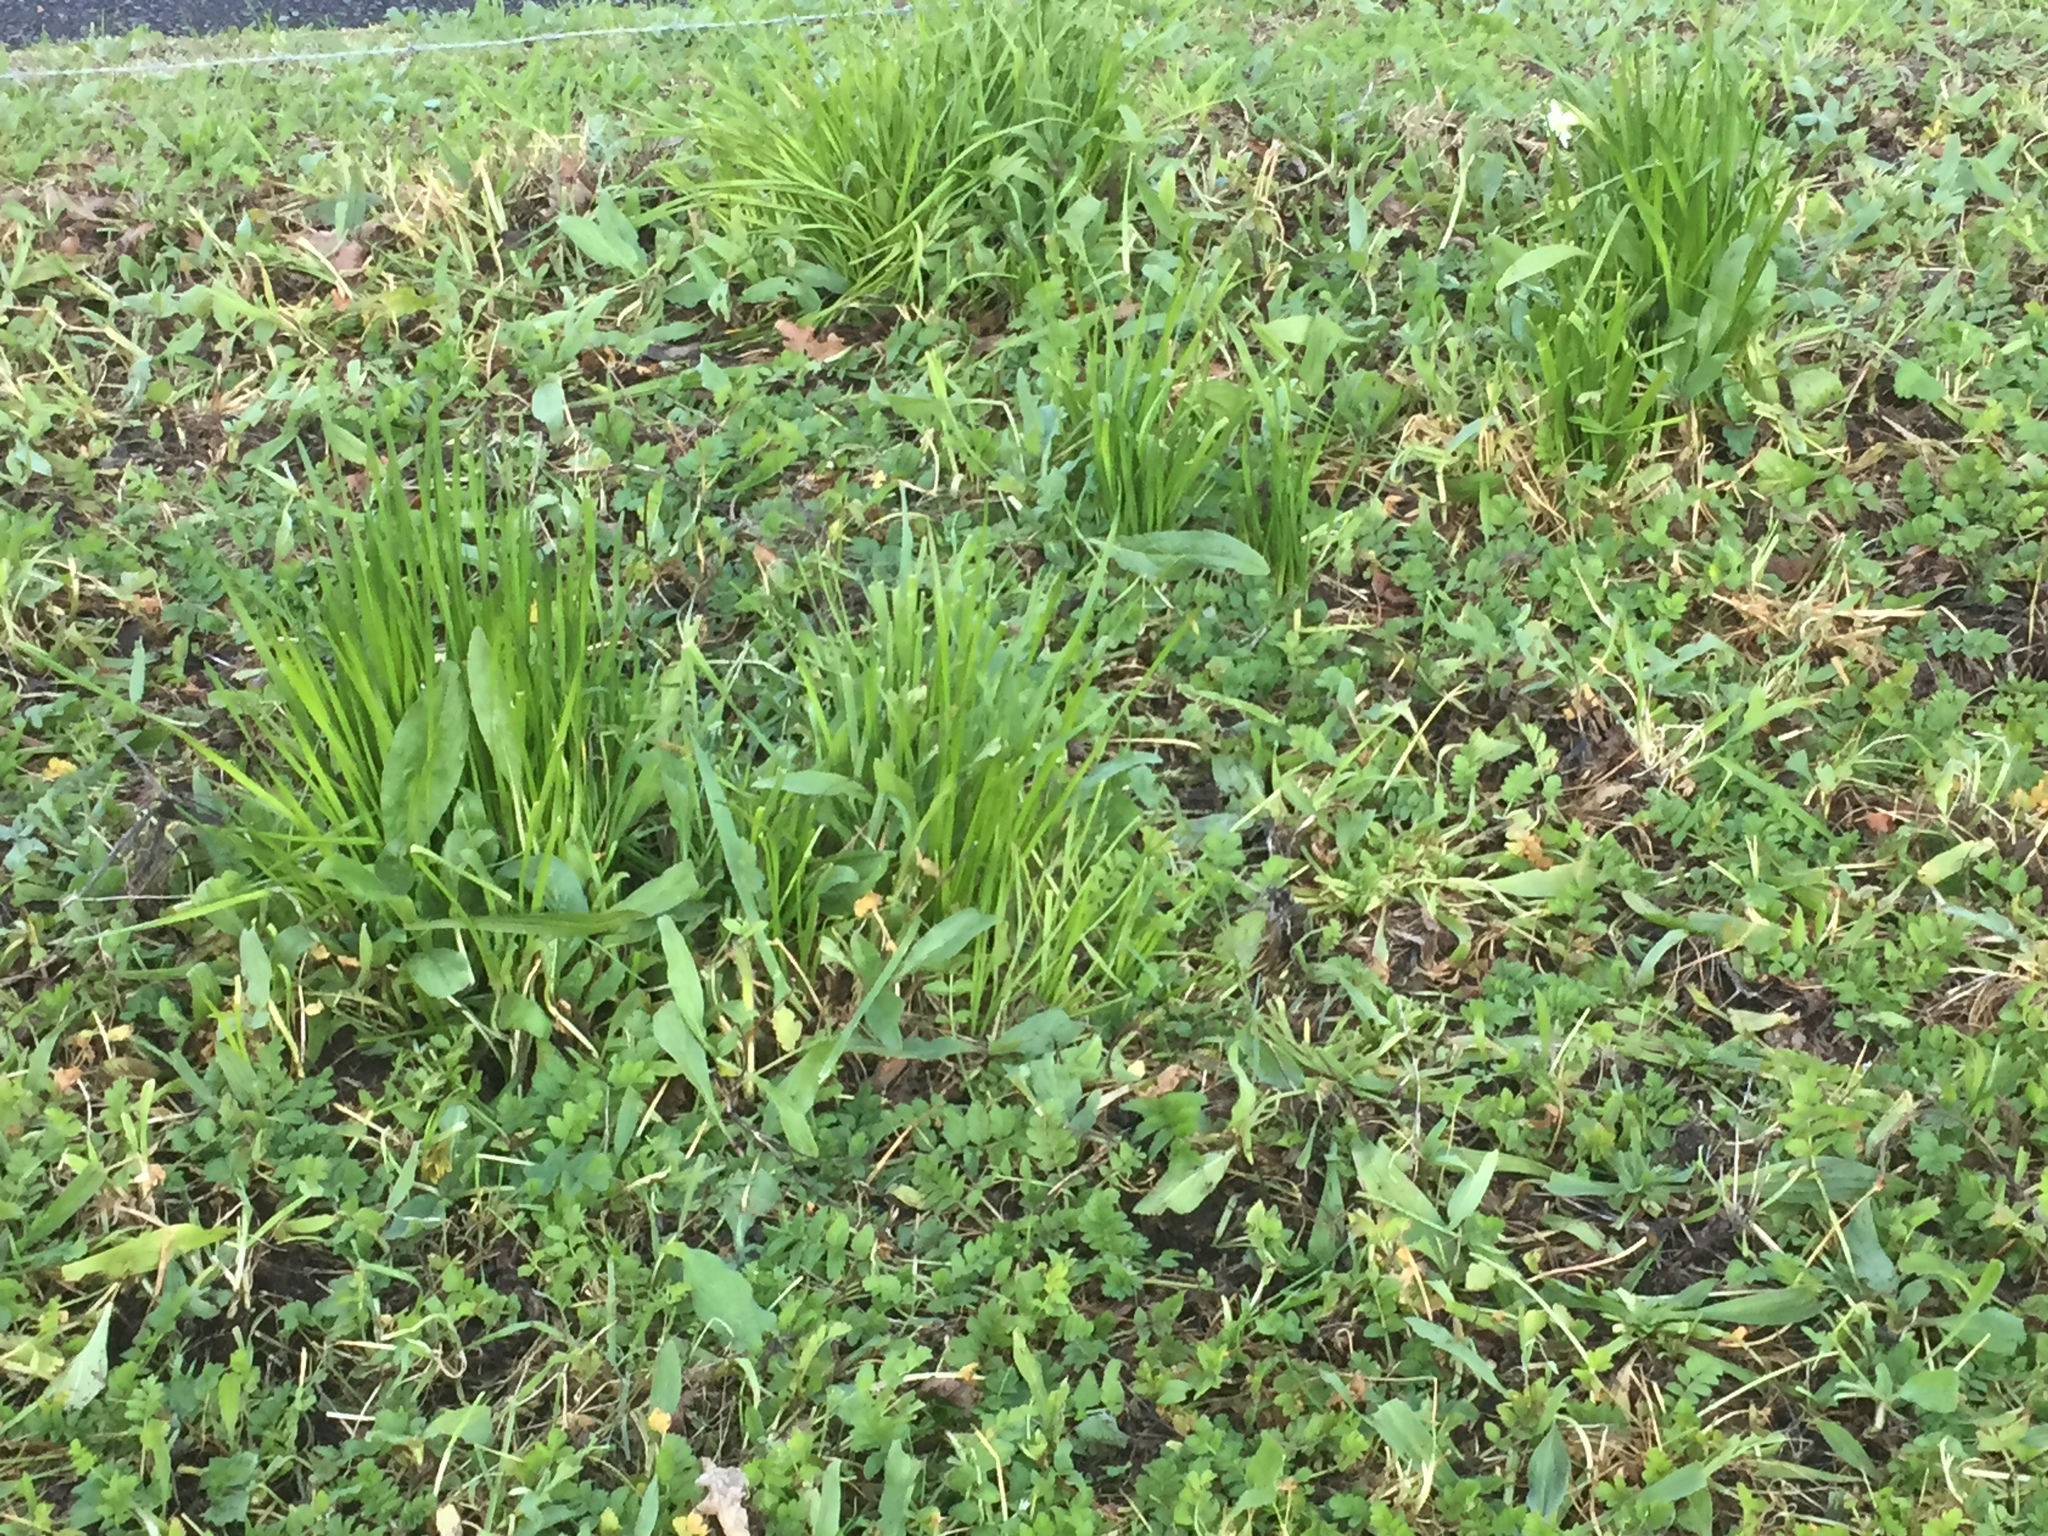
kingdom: Plantae
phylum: Tracheophyta
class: Liliopsida
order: Asparagales
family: Amaryllidaceae
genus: Narcissus
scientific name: Narcissus papyraceus
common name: Paper-white daffodil
